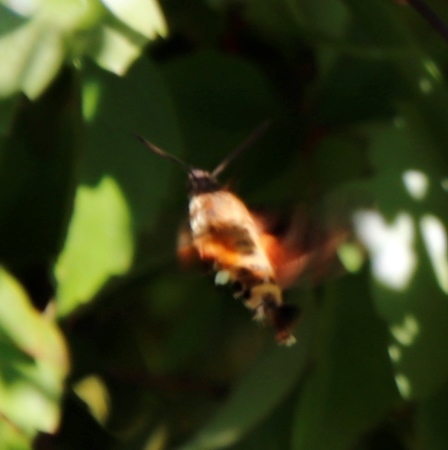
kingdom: Animalia
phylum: Arthropoda
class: Insecta
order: Lepidoptera
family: Sphingidae
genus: Macroglossum
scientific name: Macroglossum trochilus
